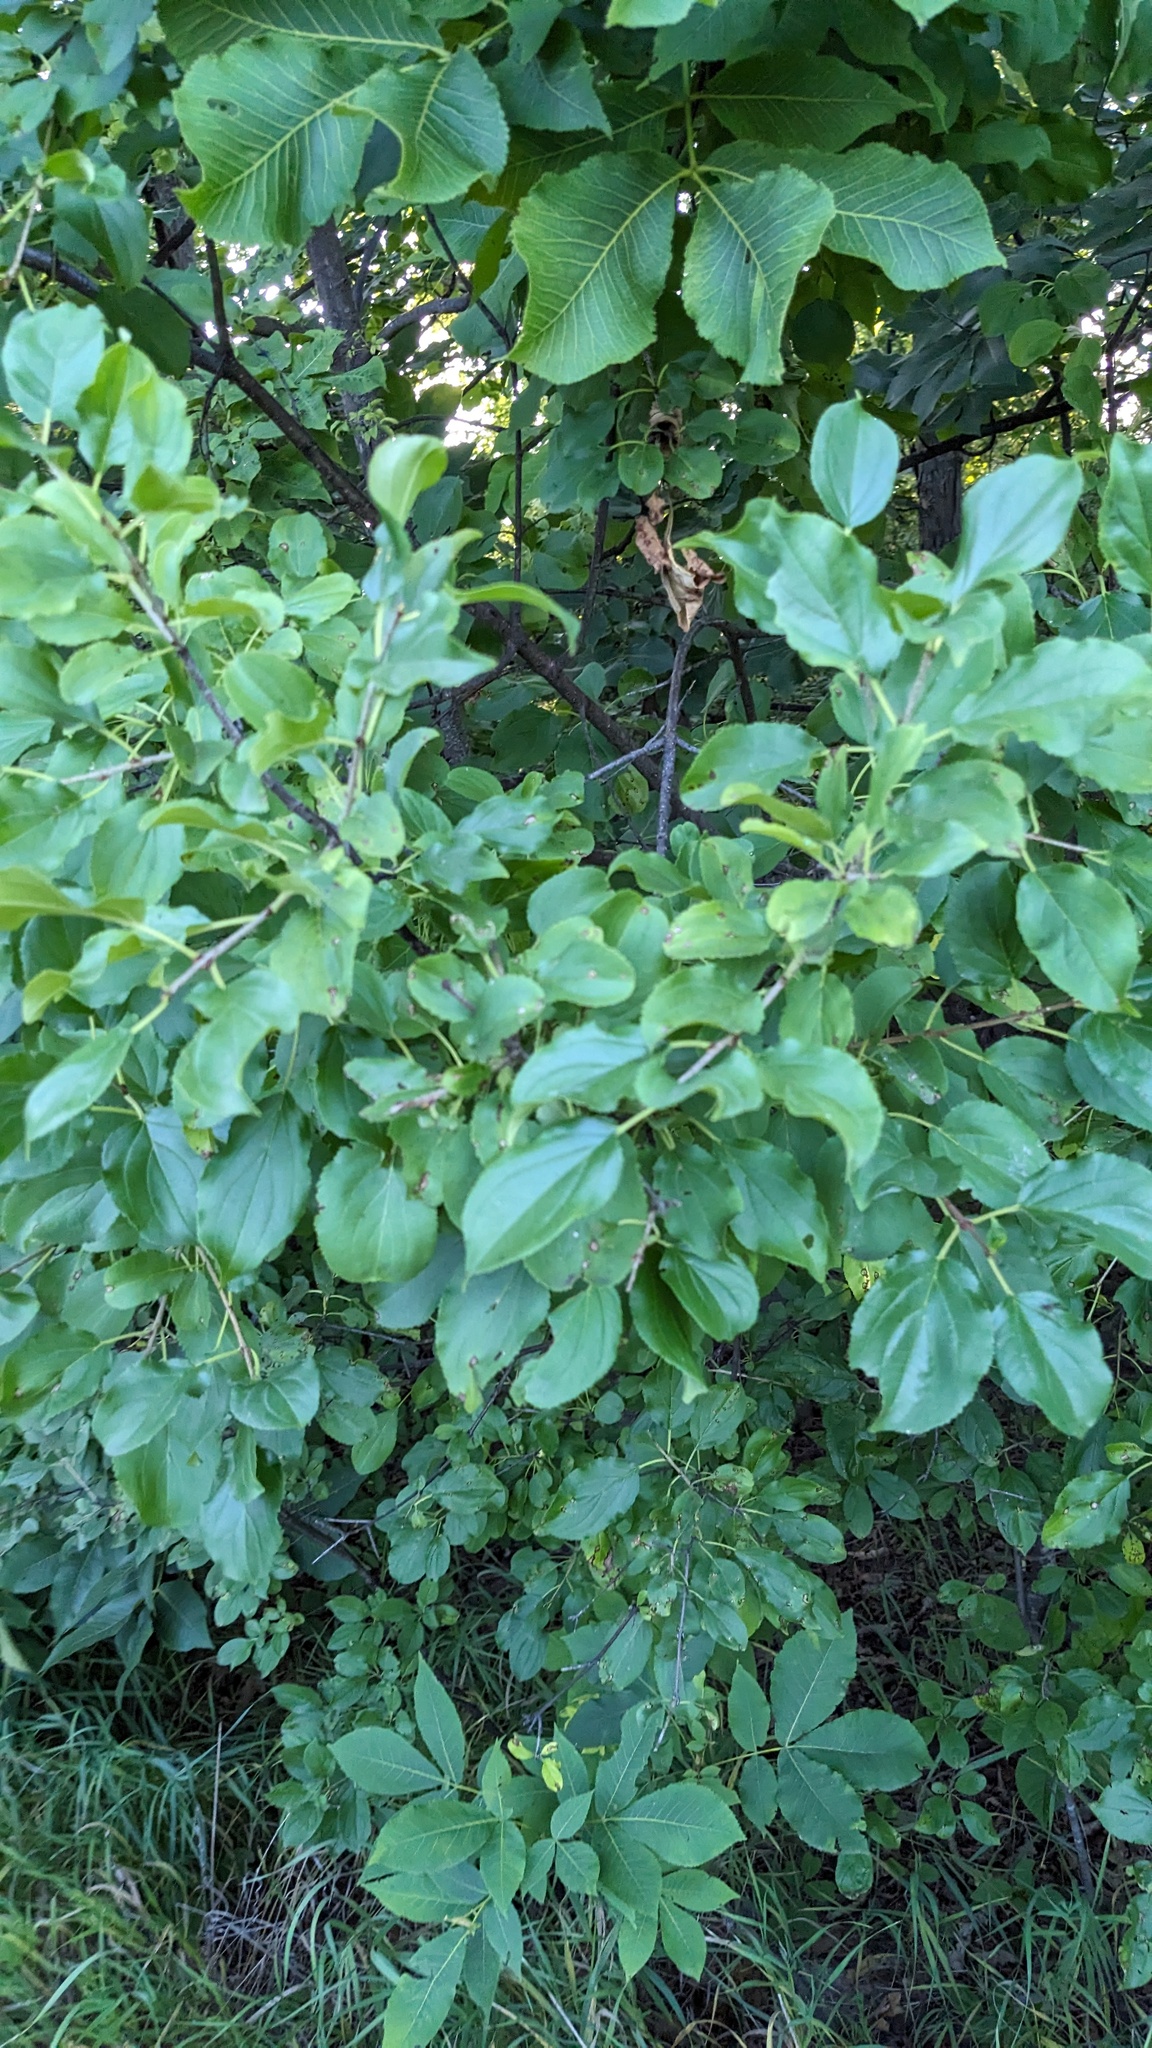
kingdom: Plantae
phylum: Tracheophyta
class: Magnoliopsida
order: Rosales
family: Rhamnaceae
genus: Rhamnus
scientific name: Rhamnus cathartica
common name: Common buckthorn
